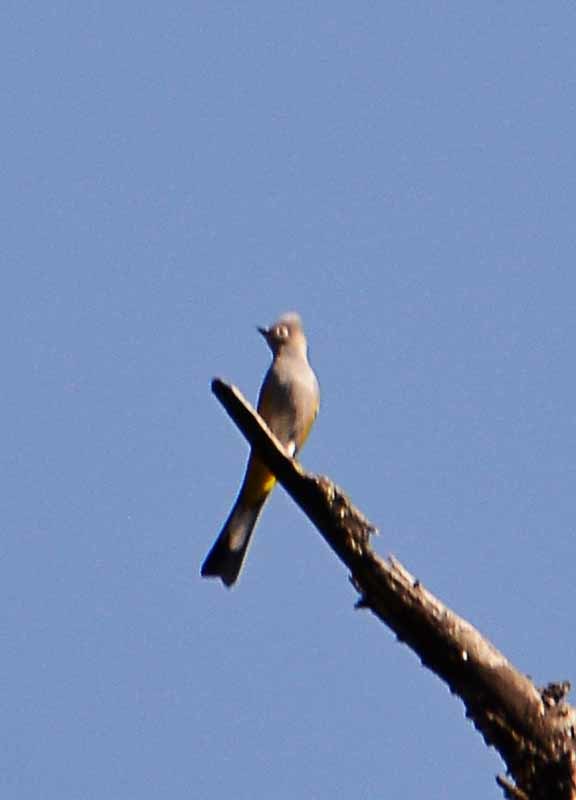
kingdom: Animalia
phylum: Chordata
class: Aves
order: Passeriformes
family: Ptilogonatidae
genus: Ptilogonys
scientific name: Ptilogonys cinereus
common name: Gray silky-flycatcher
